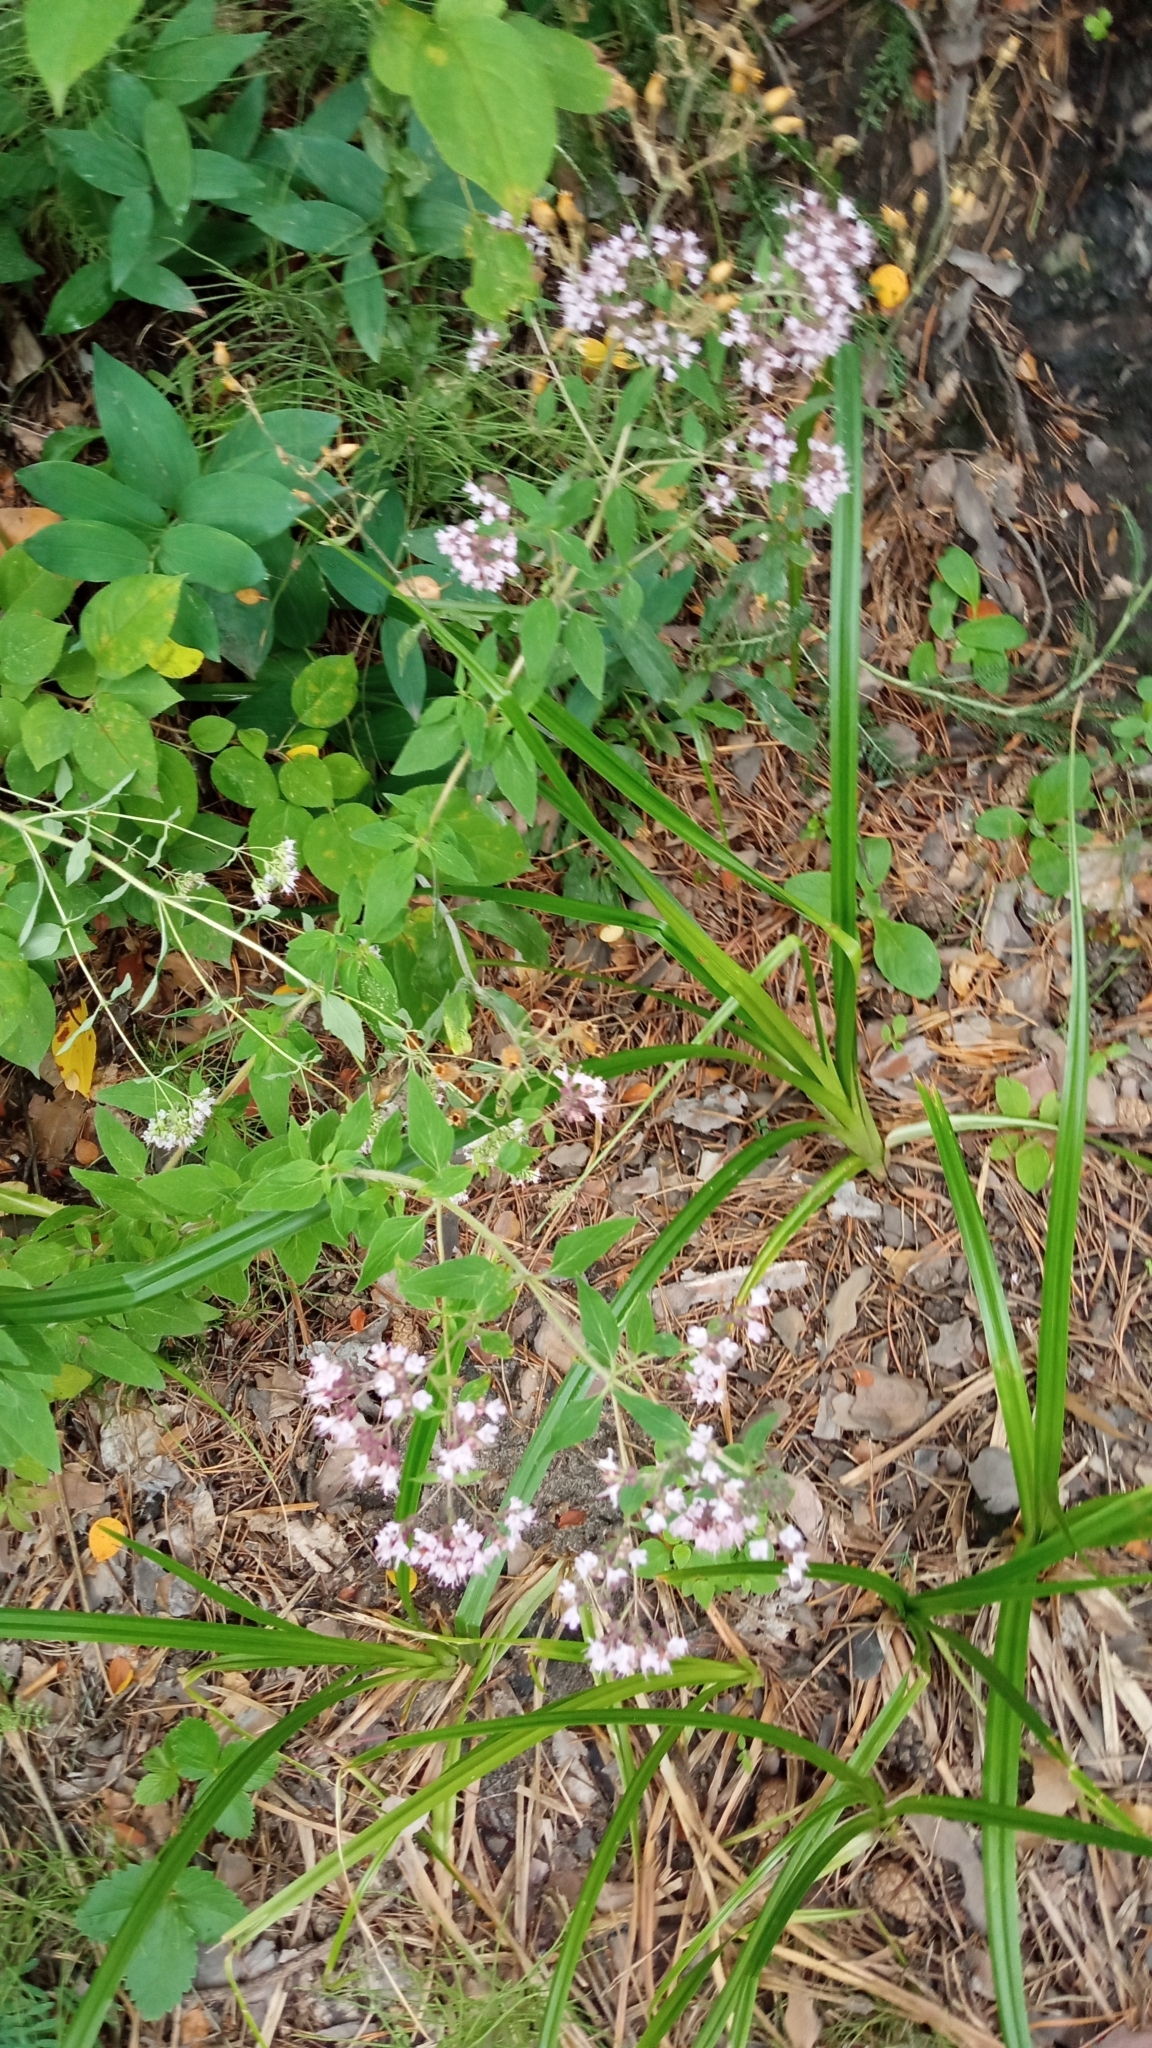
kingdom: Plantae
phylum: Tracheophyta
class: Magnoliopsida
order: Lamiales
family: Lamiaceae
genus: Origanum
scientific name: Origanum vulgare
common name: Wild marjoram
